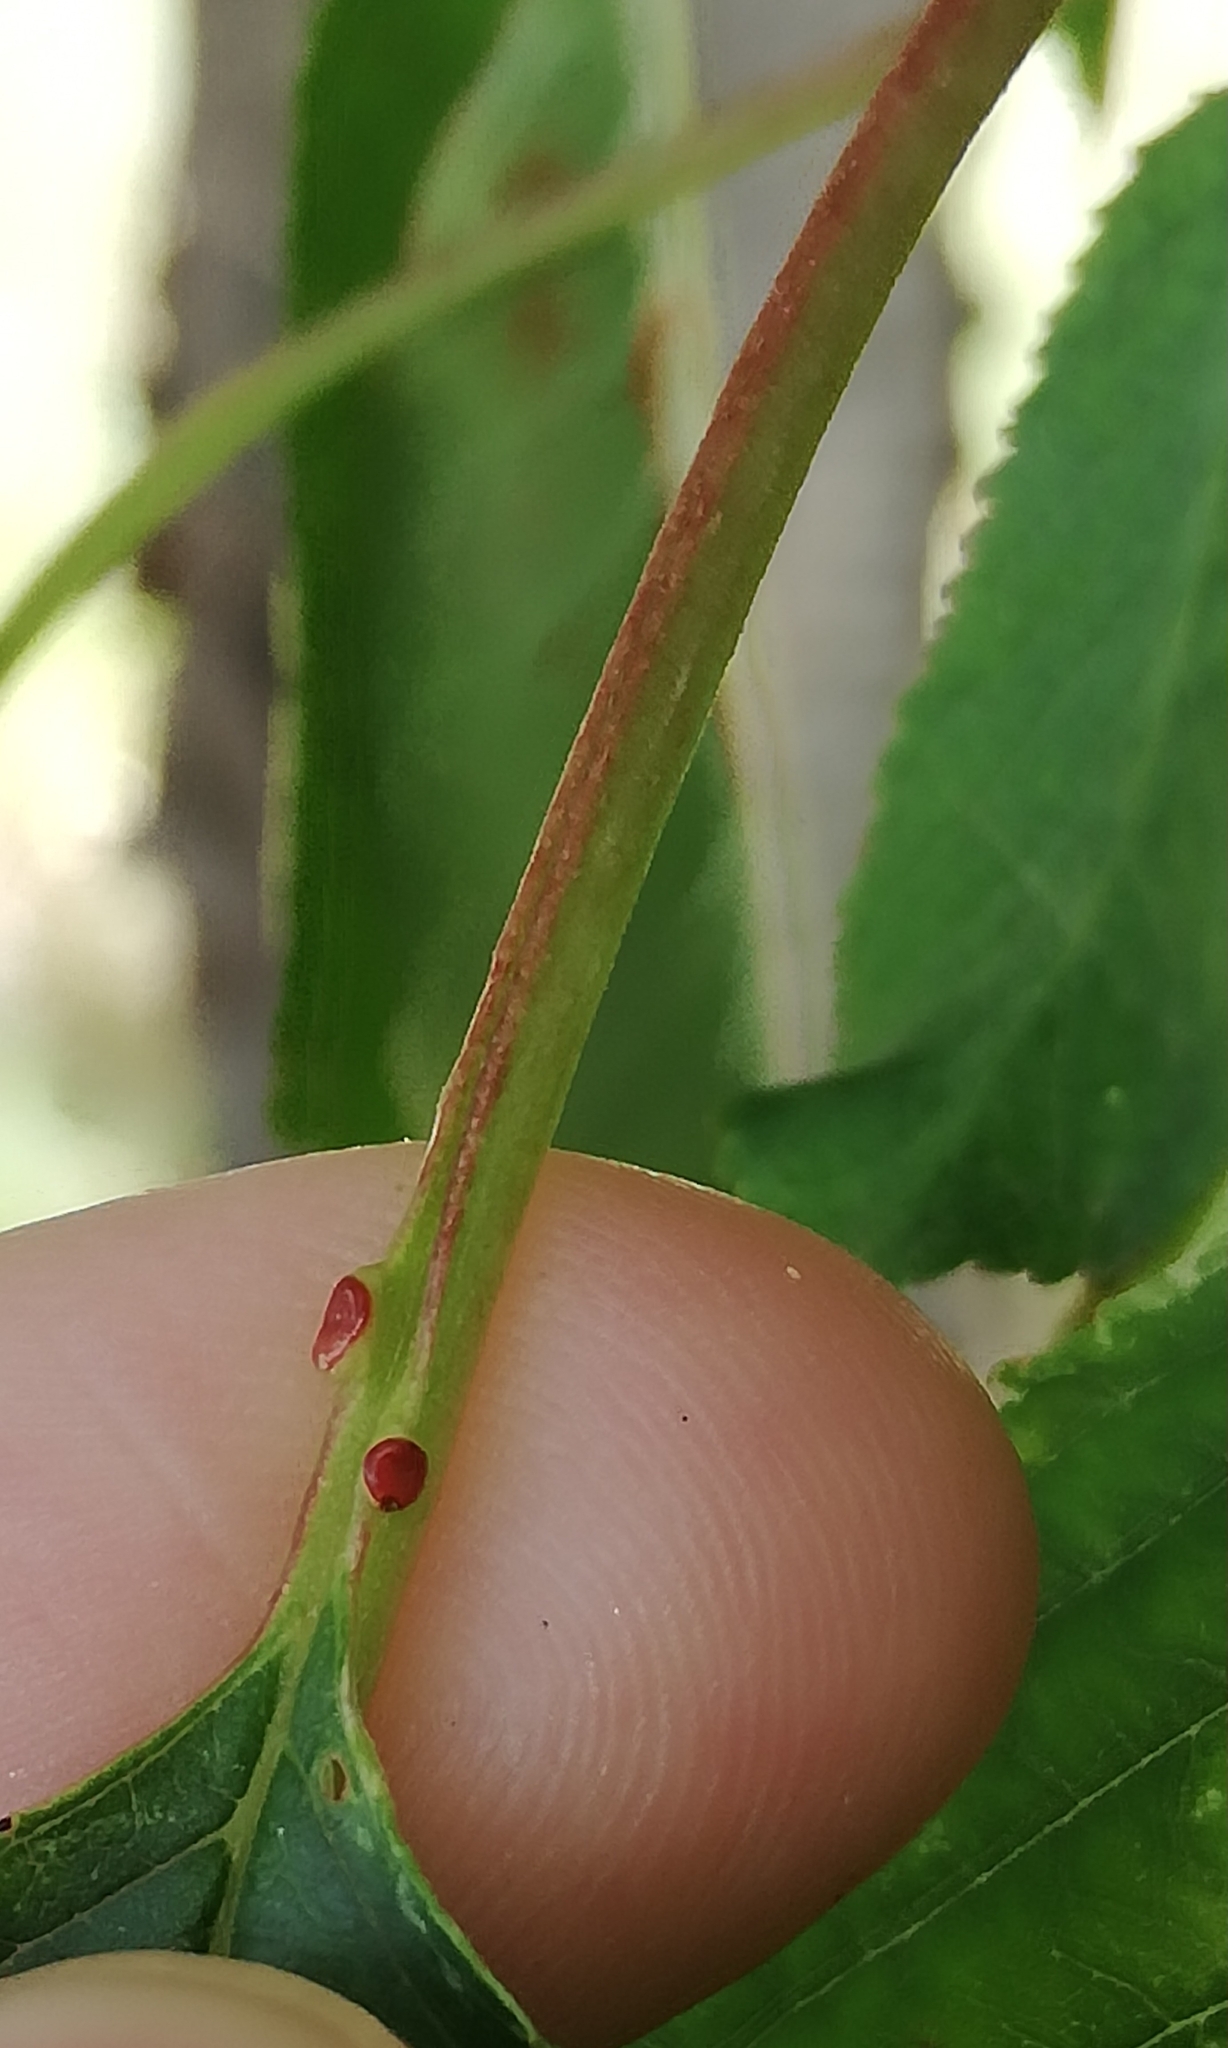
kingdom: Plantae
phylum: Tracheophyta
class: Magnoliopsida
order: Rosales
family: Rosaceae
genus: Prunus
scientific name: Prunus avium
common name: Sweet cherry
